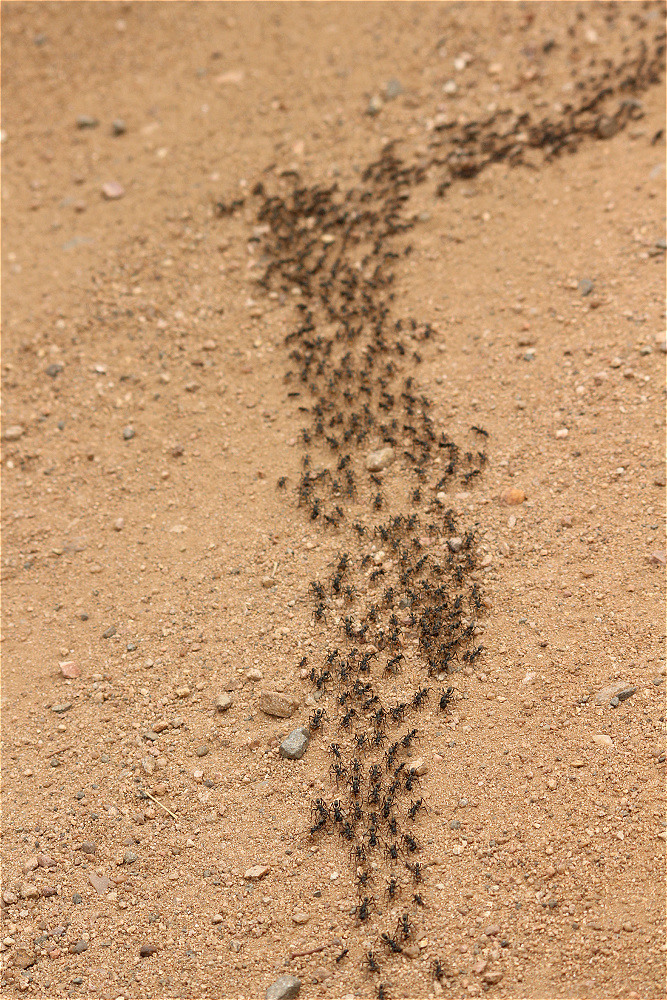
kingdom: Animalia
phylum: Arthropoda
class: Insecta
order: Hymenoptera
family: Formicidae
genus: Megaponera
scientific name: Megaponera analis
